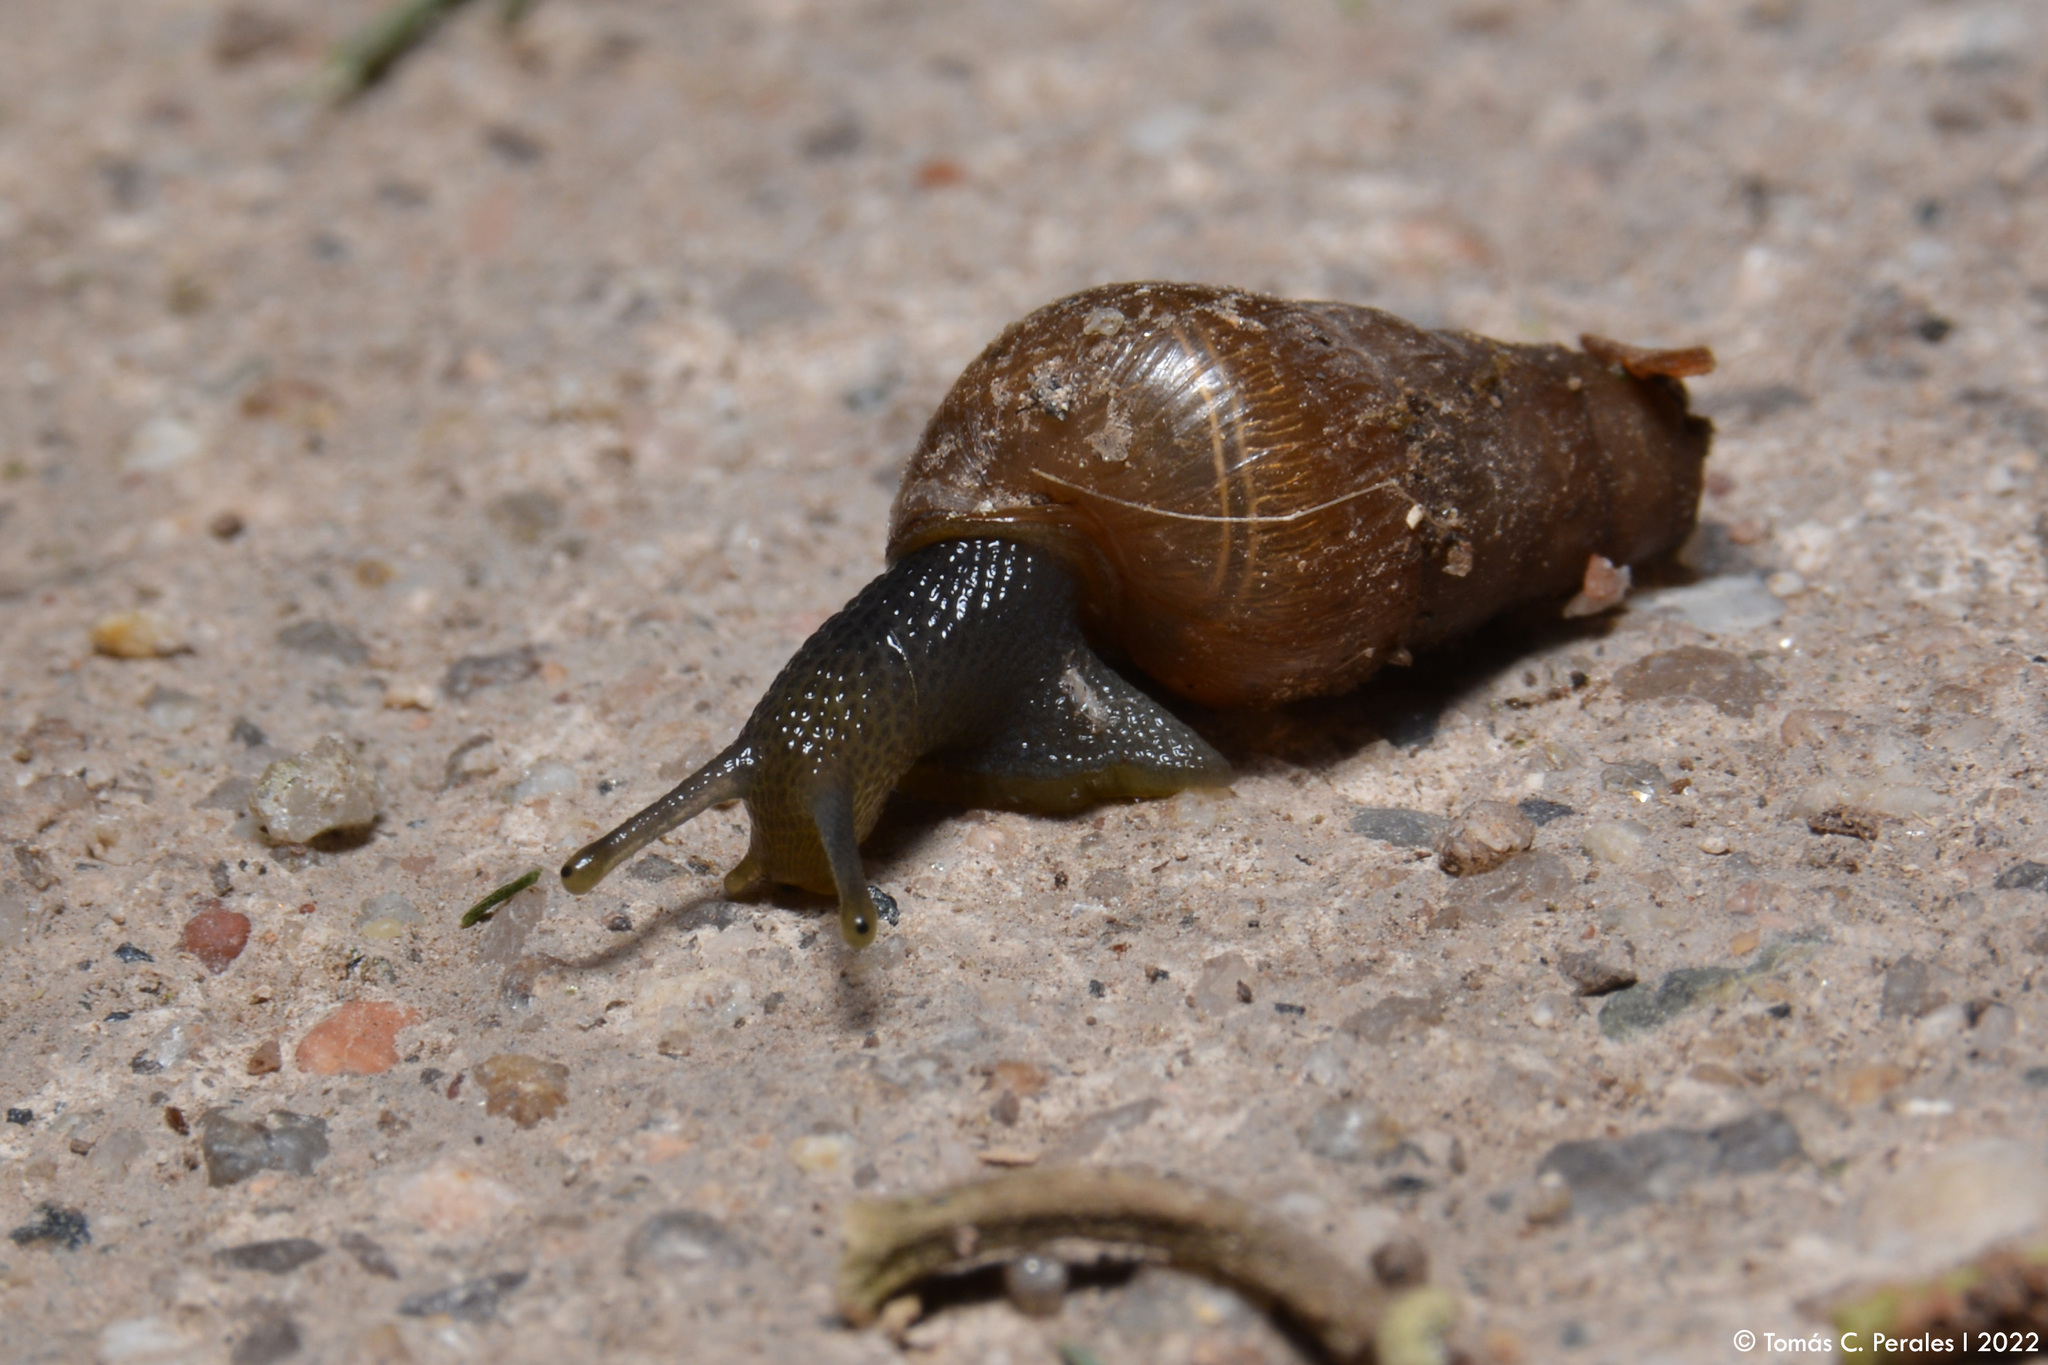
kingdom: Animalia
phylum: Mollusca
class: Gastropoda
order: Stylommatophora
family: Achatinidae
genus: Rumina
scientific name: Rumina decollata
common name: Decollate snail
